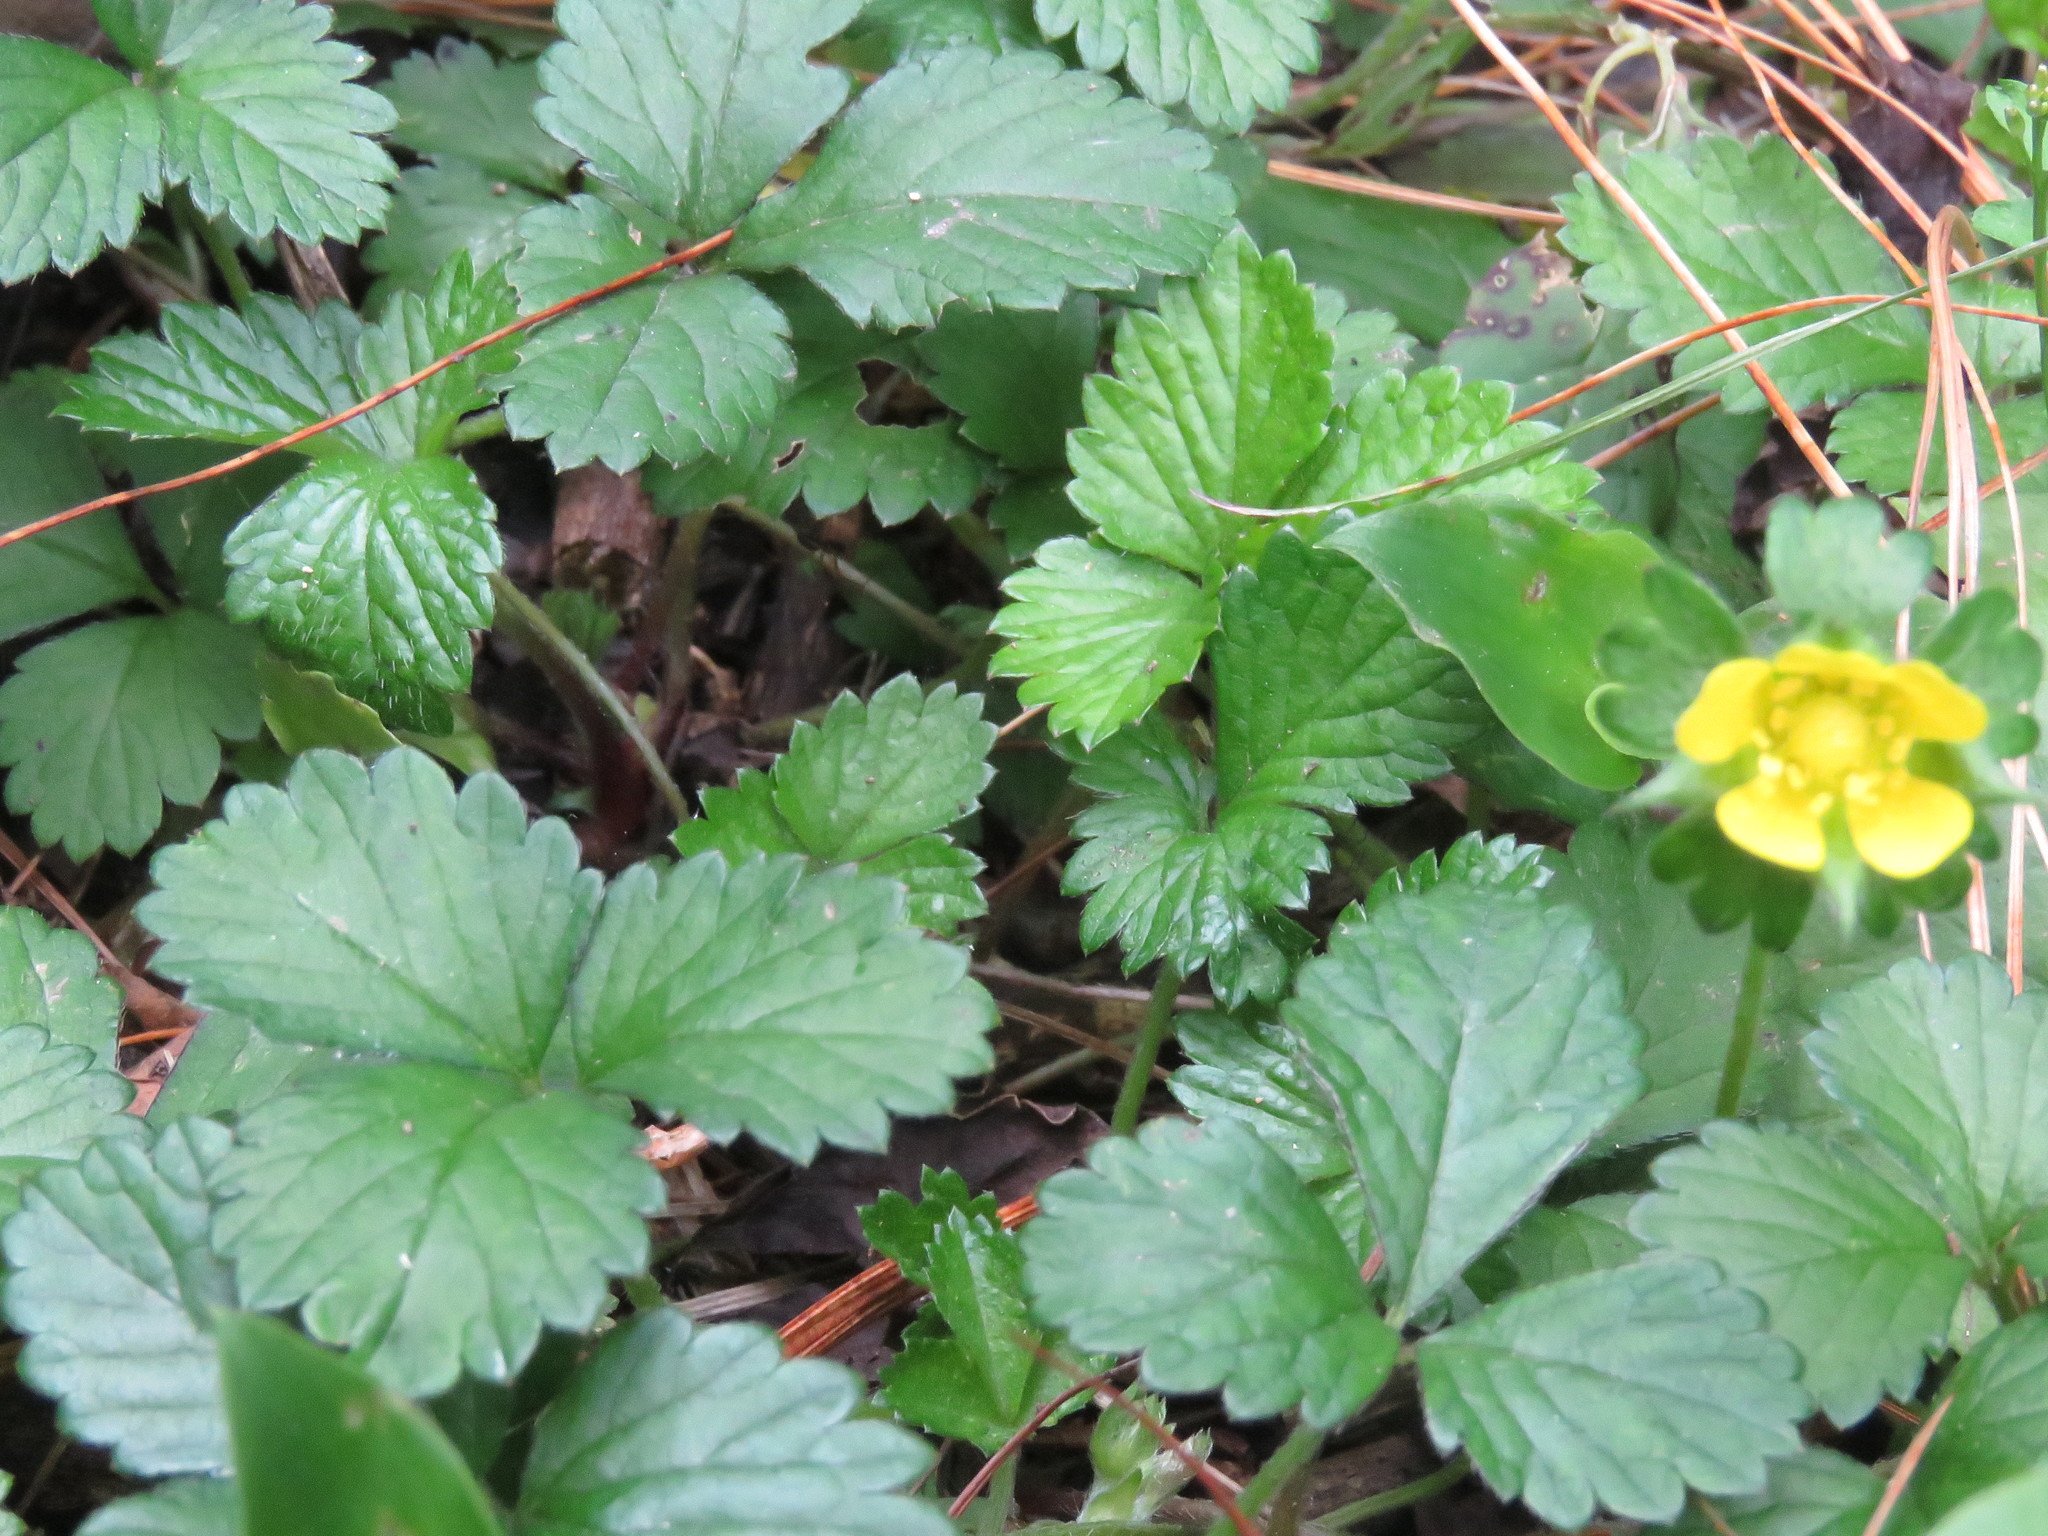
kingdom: Plantae
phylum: Tracheophyta
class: Magnoliopsida
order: Rosales
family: Rosaceae
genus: Potentilla
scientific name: Potentilla indica
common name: Yellow-flowered strawberry
